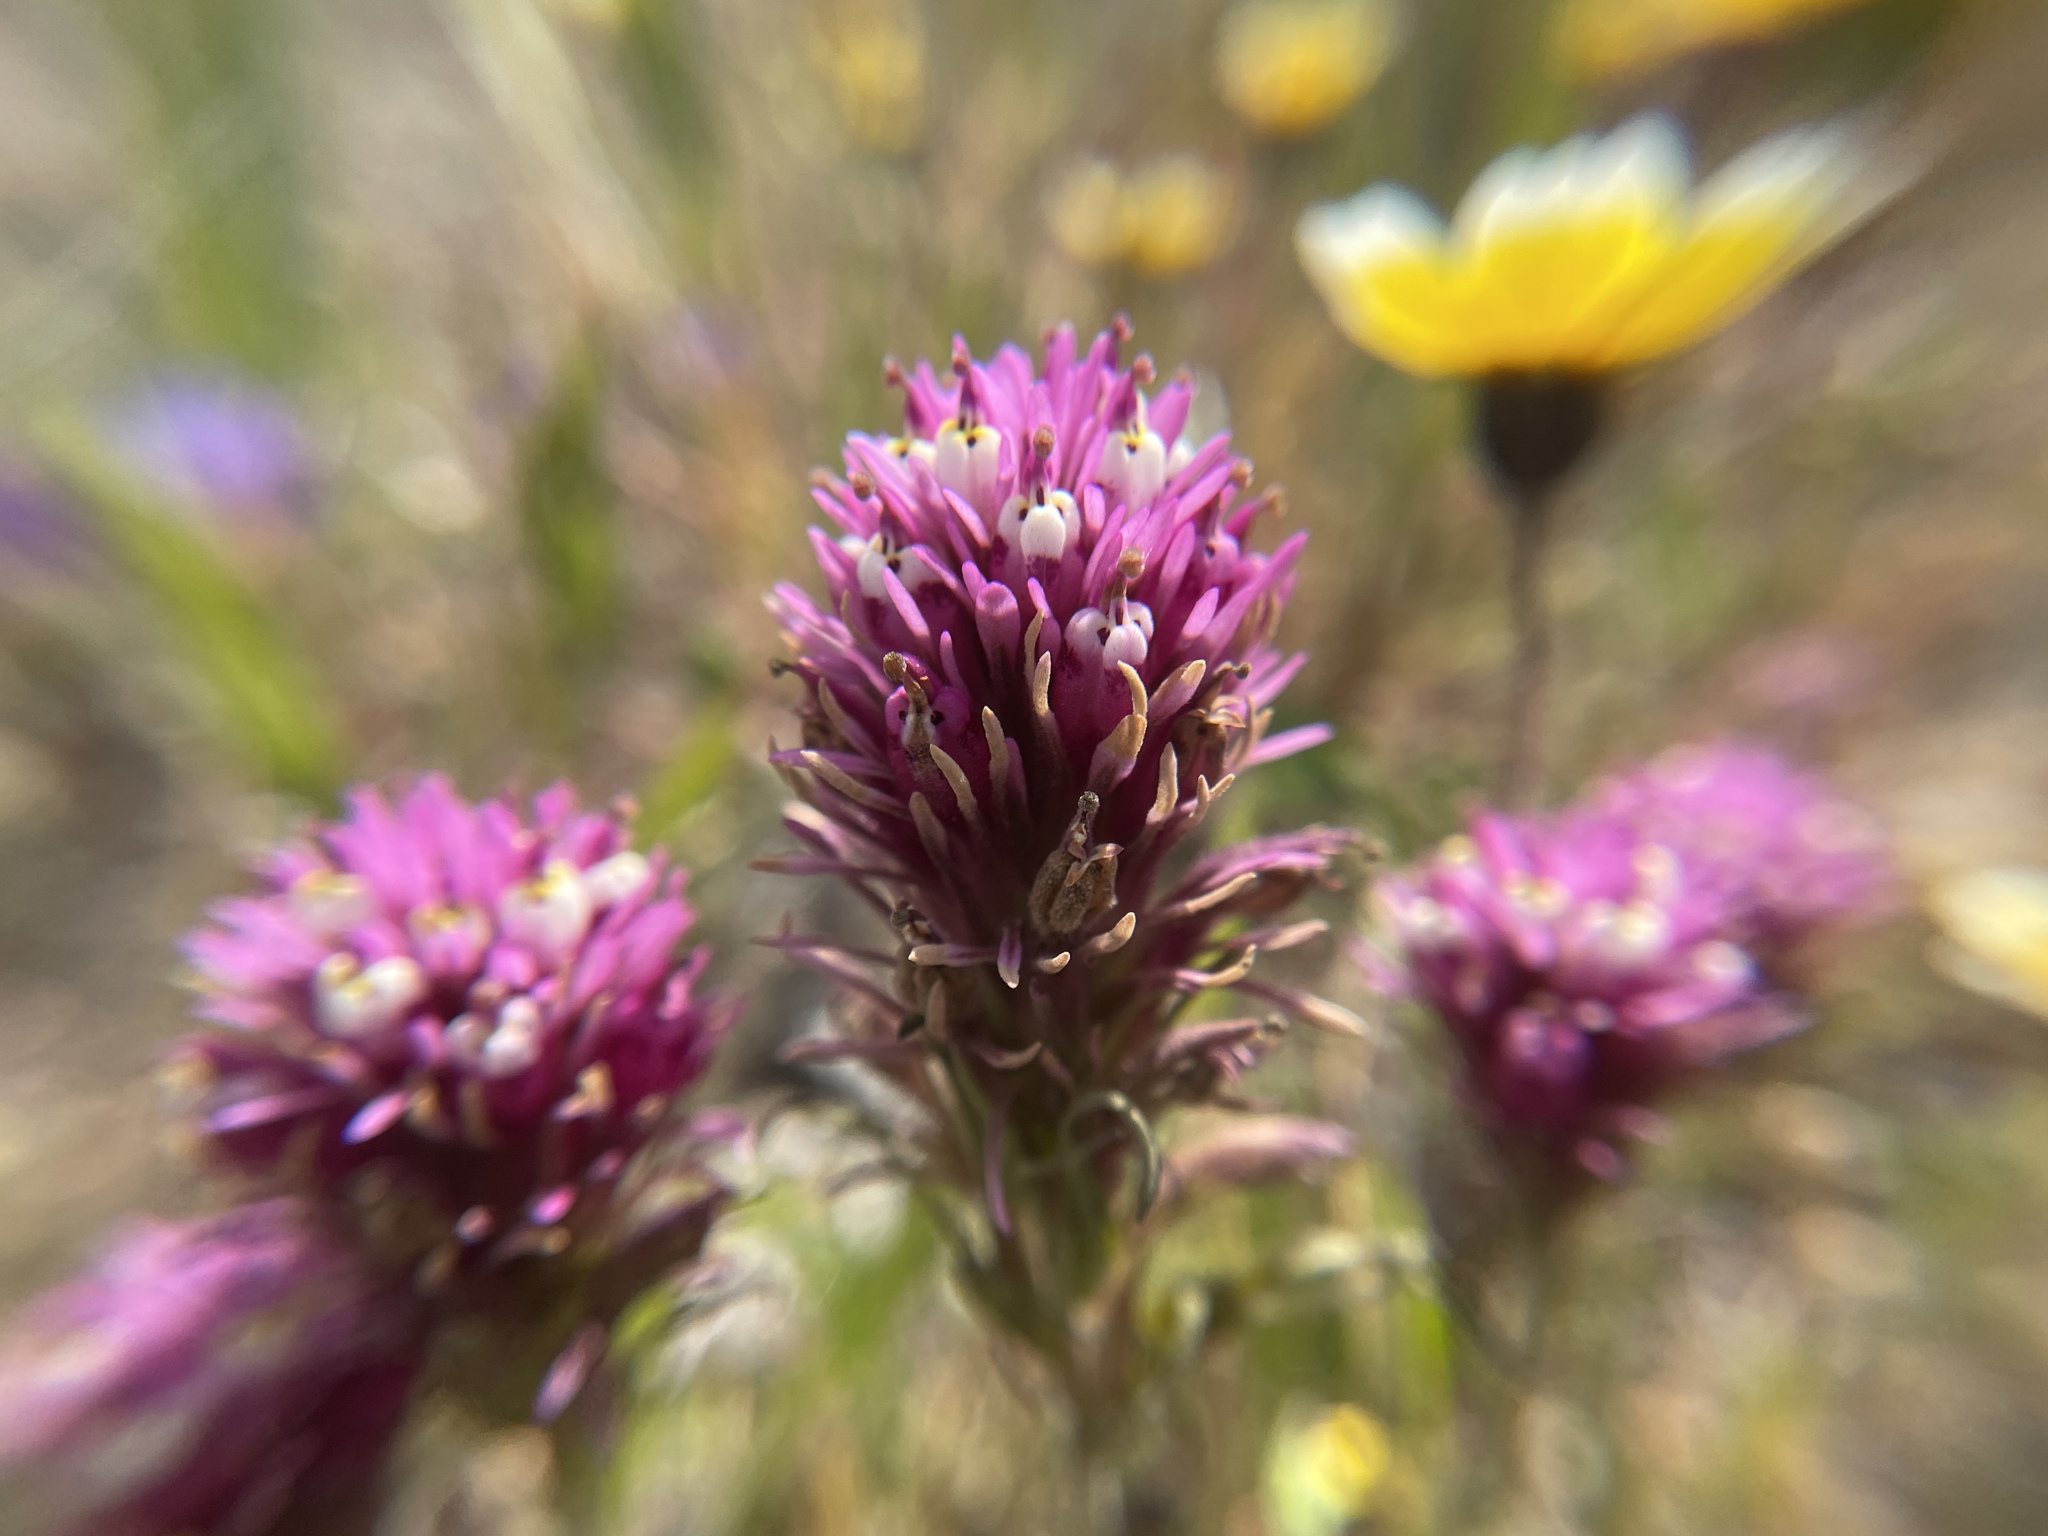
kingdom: Plantae
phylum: Tracheophyta
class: Magnoliopsida
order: Lamiales
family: Orobanchaceae
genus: Castilleja
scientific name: Castilleja densiflora
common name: Dense-flower indian paintbrush
